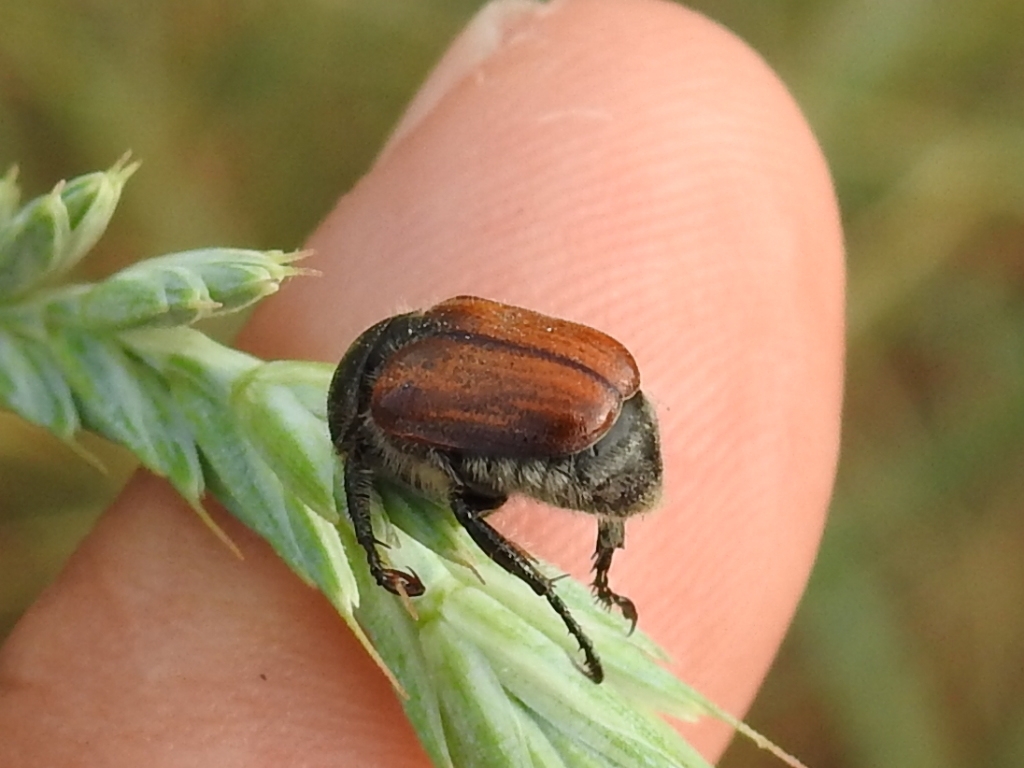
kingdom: Animalia
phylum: Arthropoda
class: Insecta
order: Coleoptera
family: Scarabaeidae
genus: Anisoplia
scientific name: Anisoplia tempestiva
